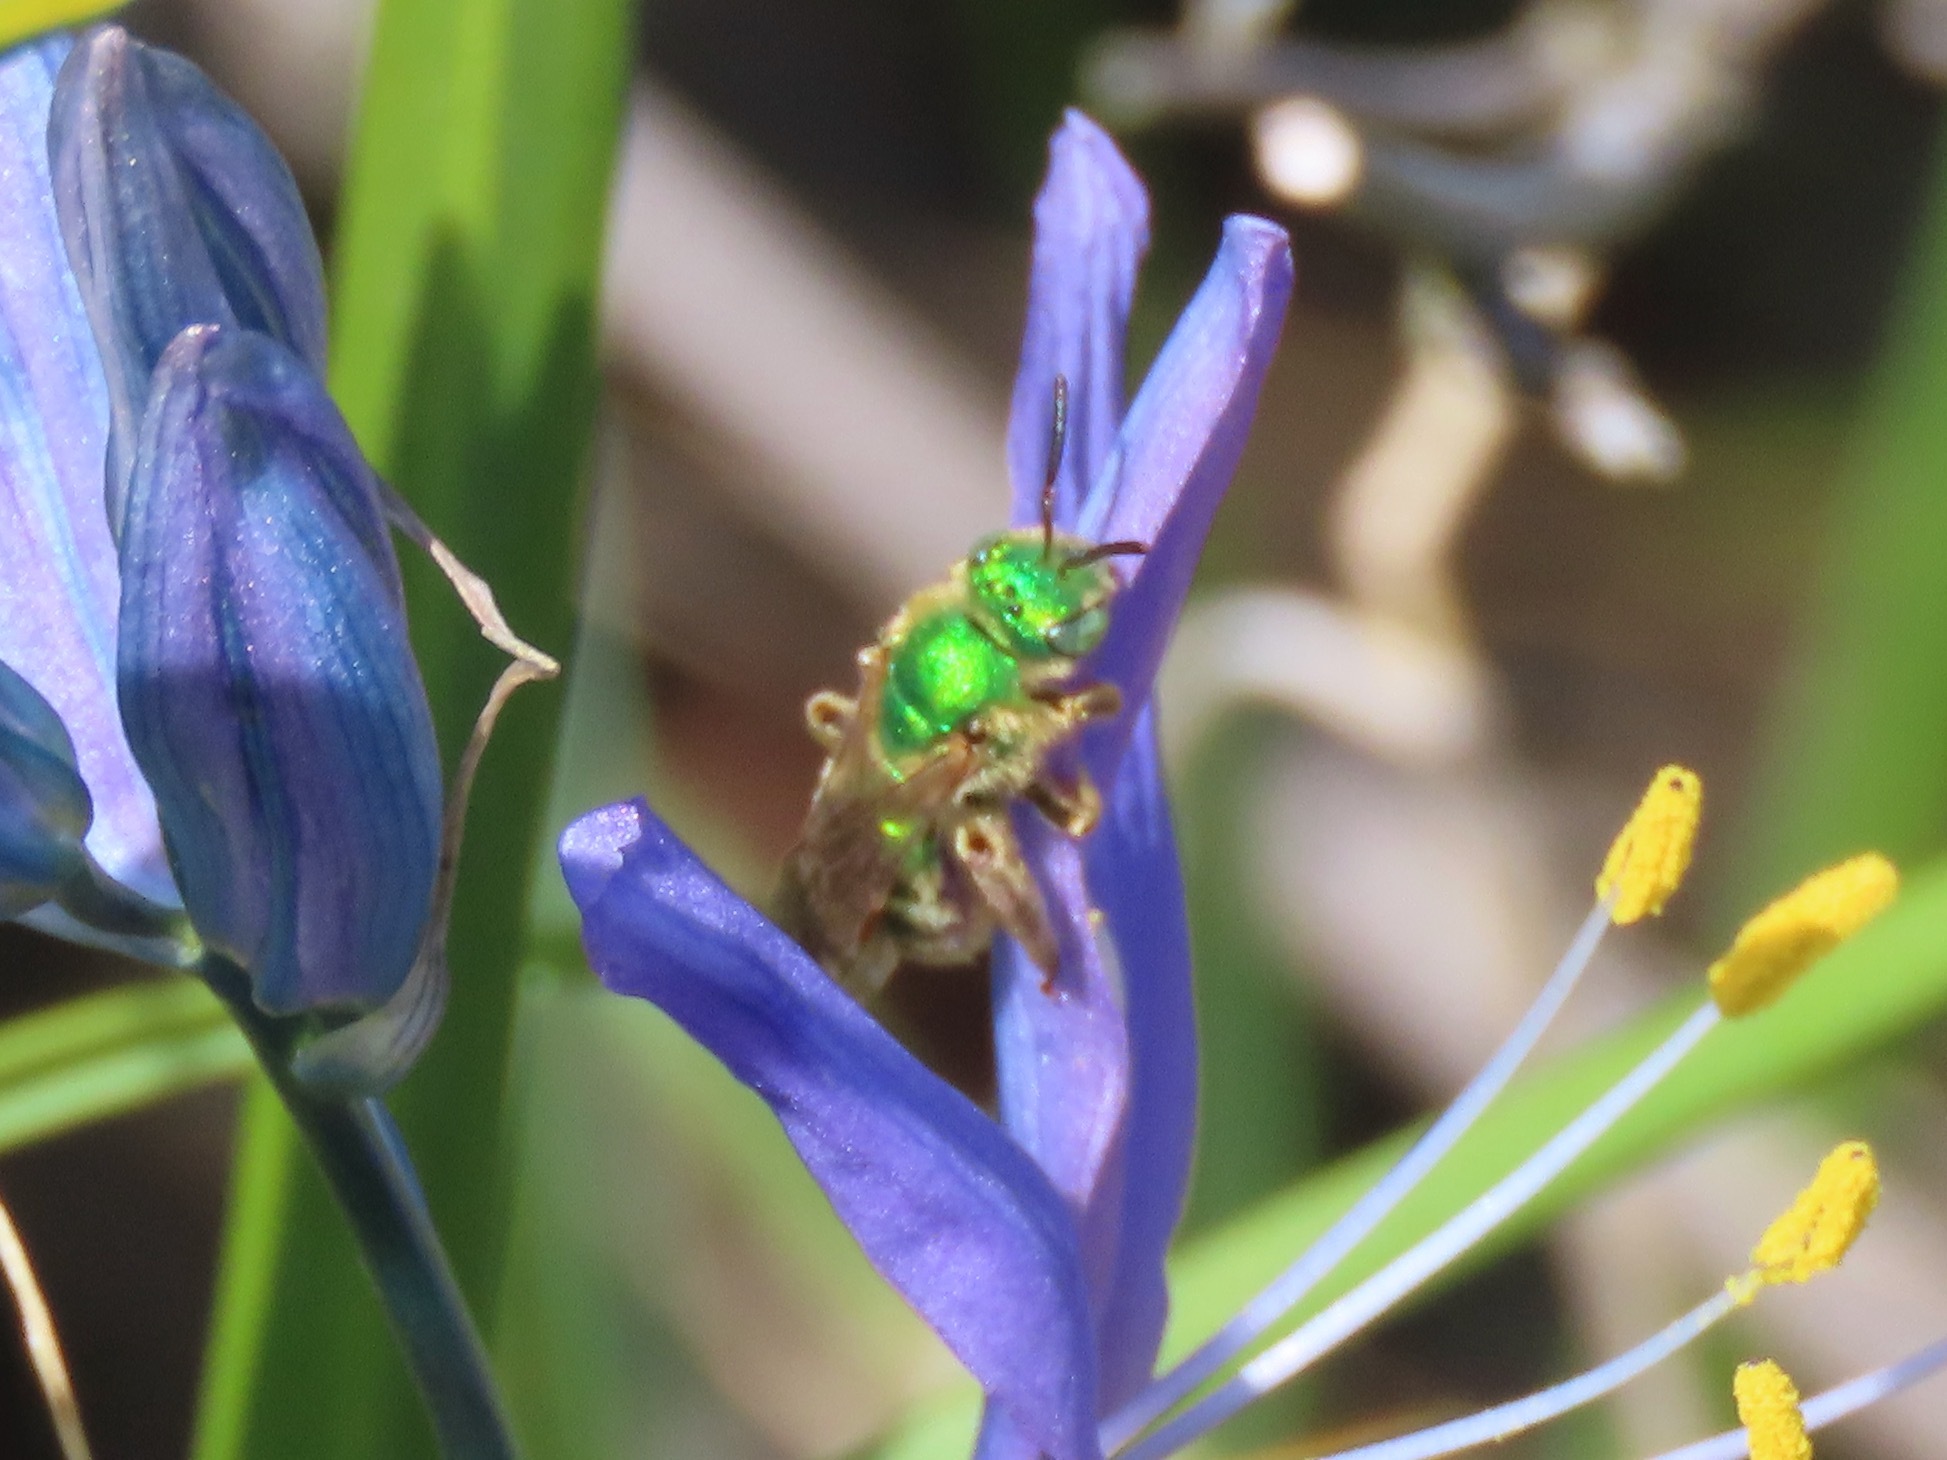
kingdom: Animalia
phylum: Arthropoda
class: Insecta
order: Hymenoptera
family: Halictidae
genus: Agapostemon
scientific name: Agapostemon texanus
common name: Texas striped sweat bee
